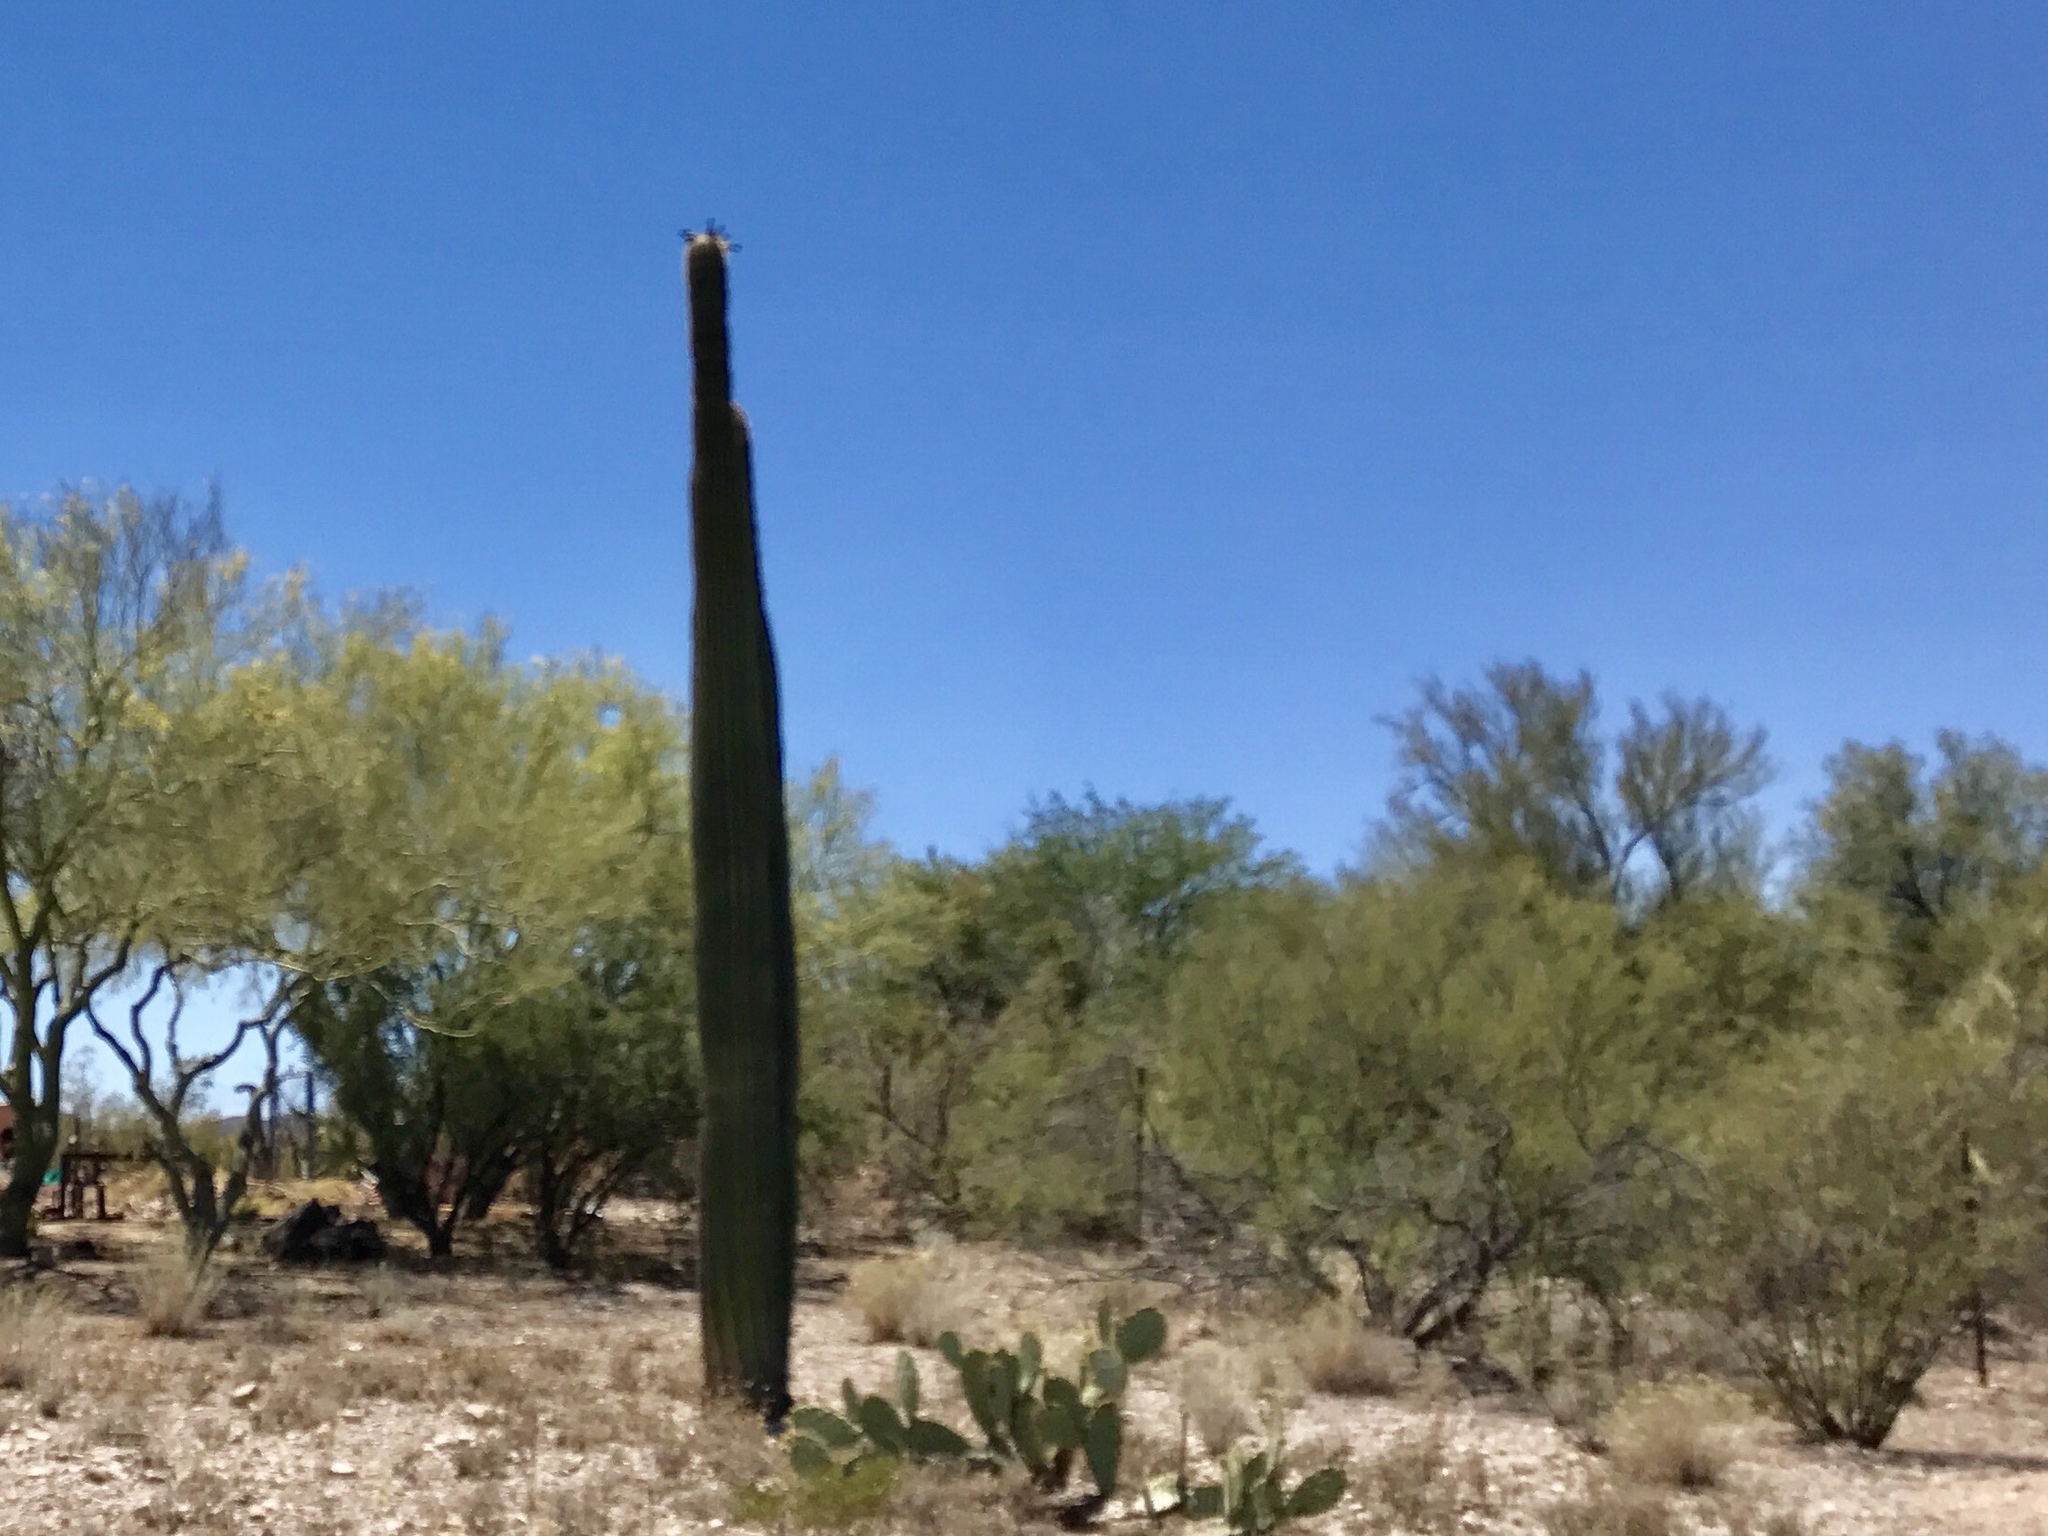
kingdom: Plantae
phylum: Tracheophyta
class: Magnoliopsida
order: Caryophyllales
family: Cactaceae
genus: Carnegiea
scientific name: Carnegiea gigantea
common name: Saguaro
